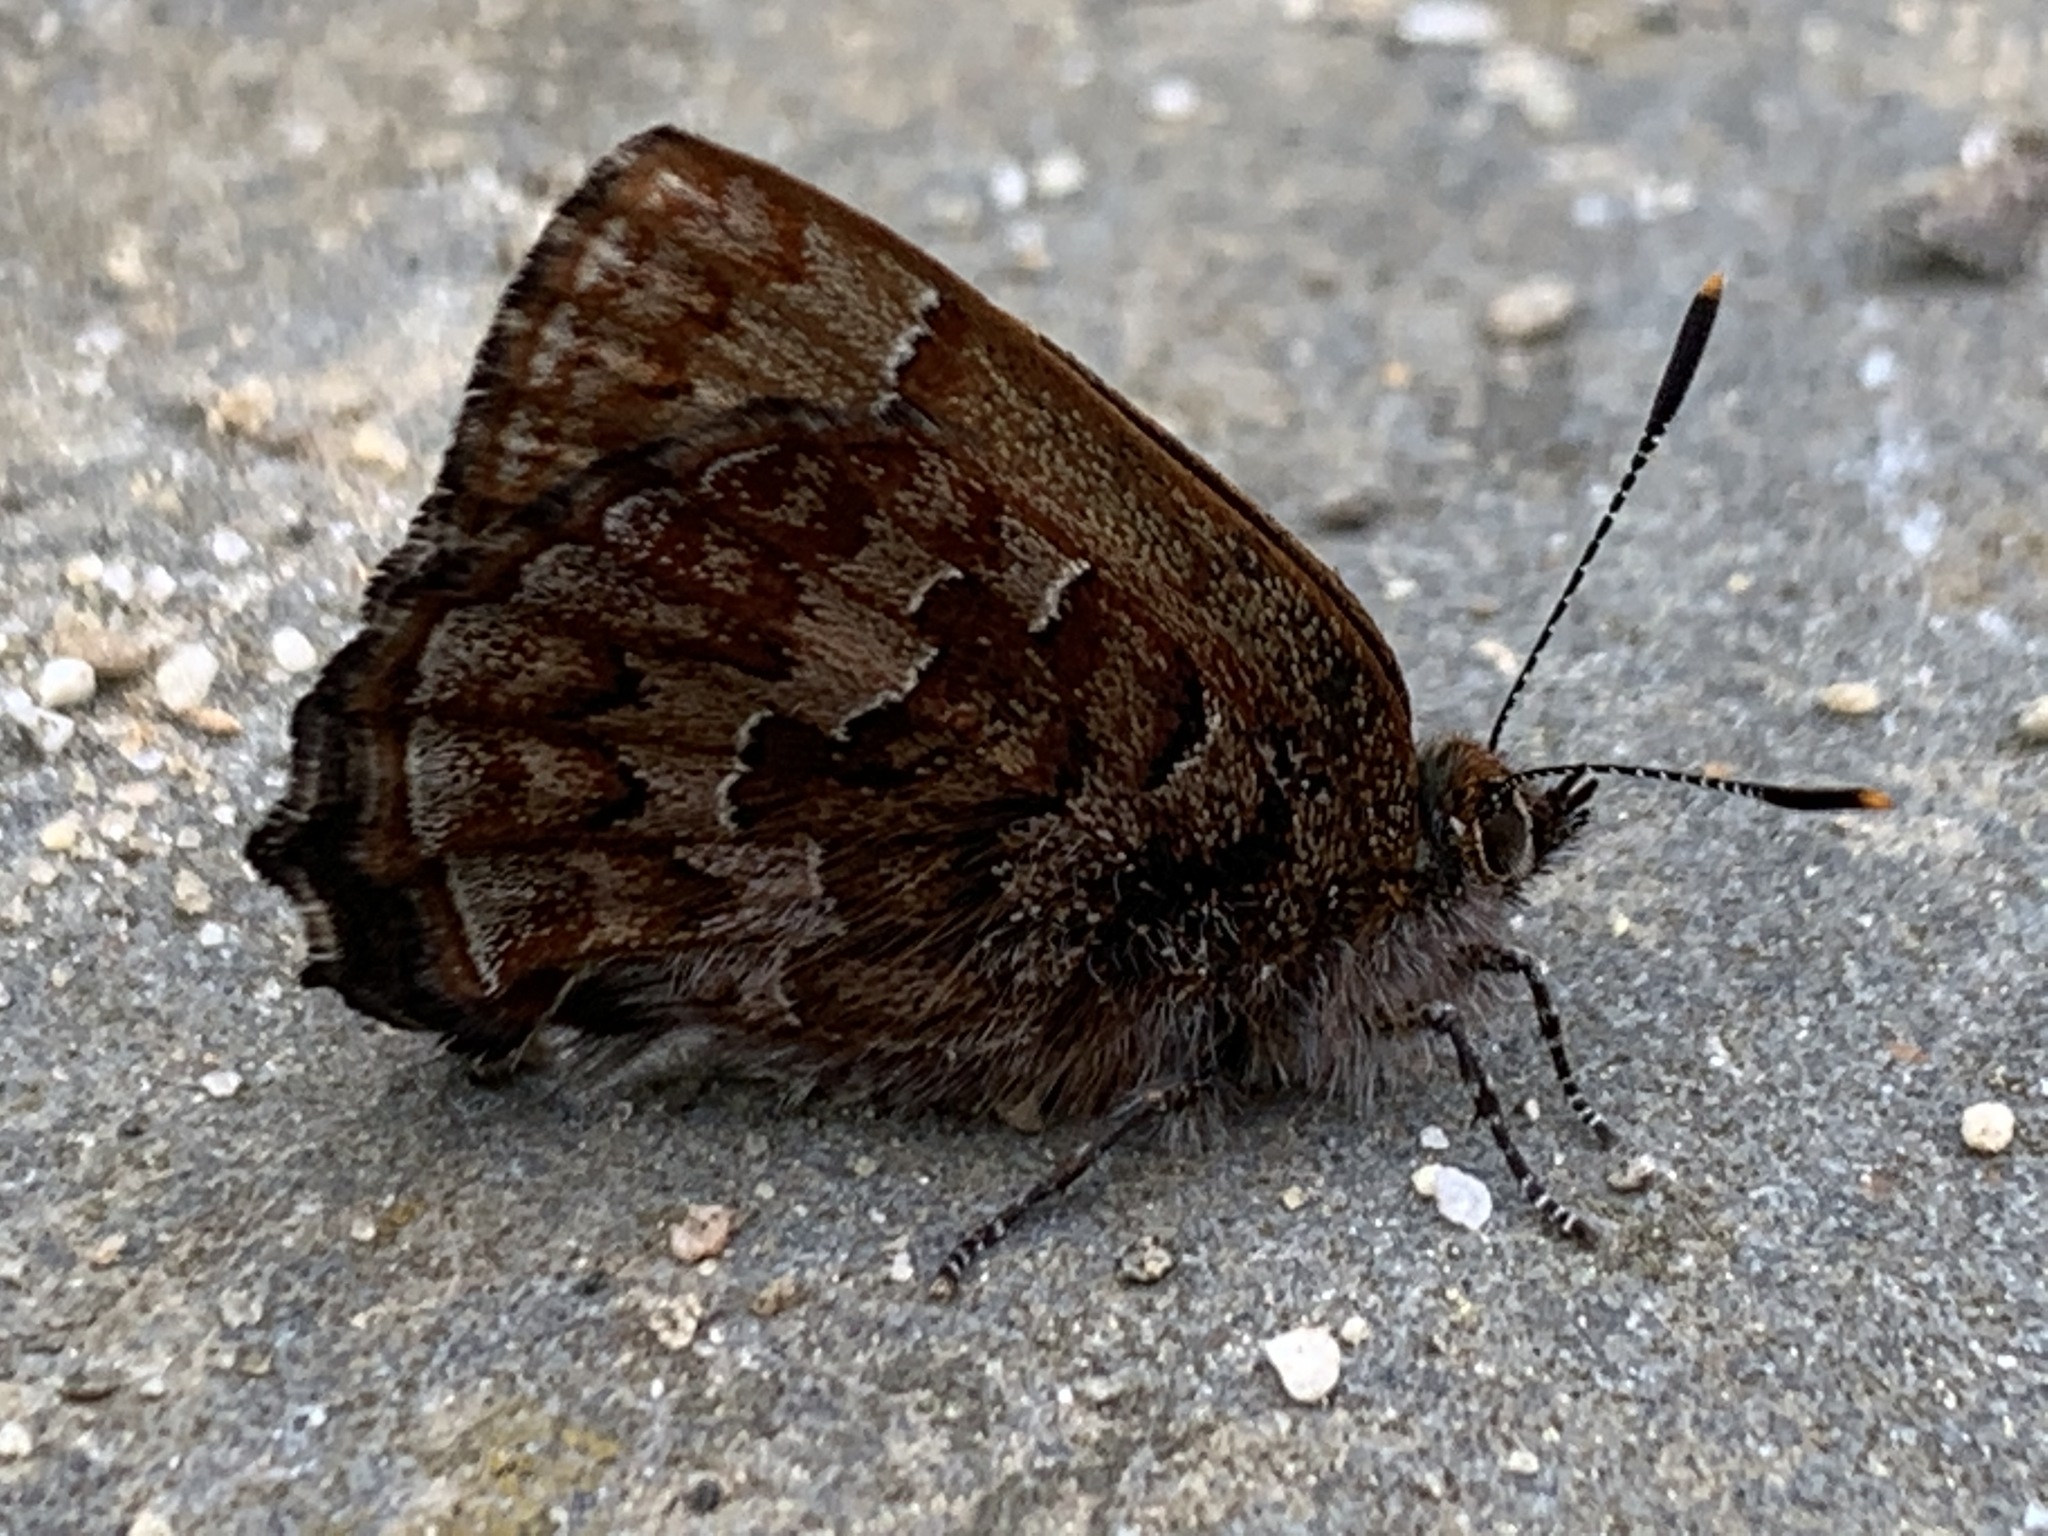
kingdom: Animalia
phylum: Arthropoda
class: Insecta
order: Lepidoptera
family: Lycaenidae
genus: Incisalia
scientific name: Incisalia niphon
